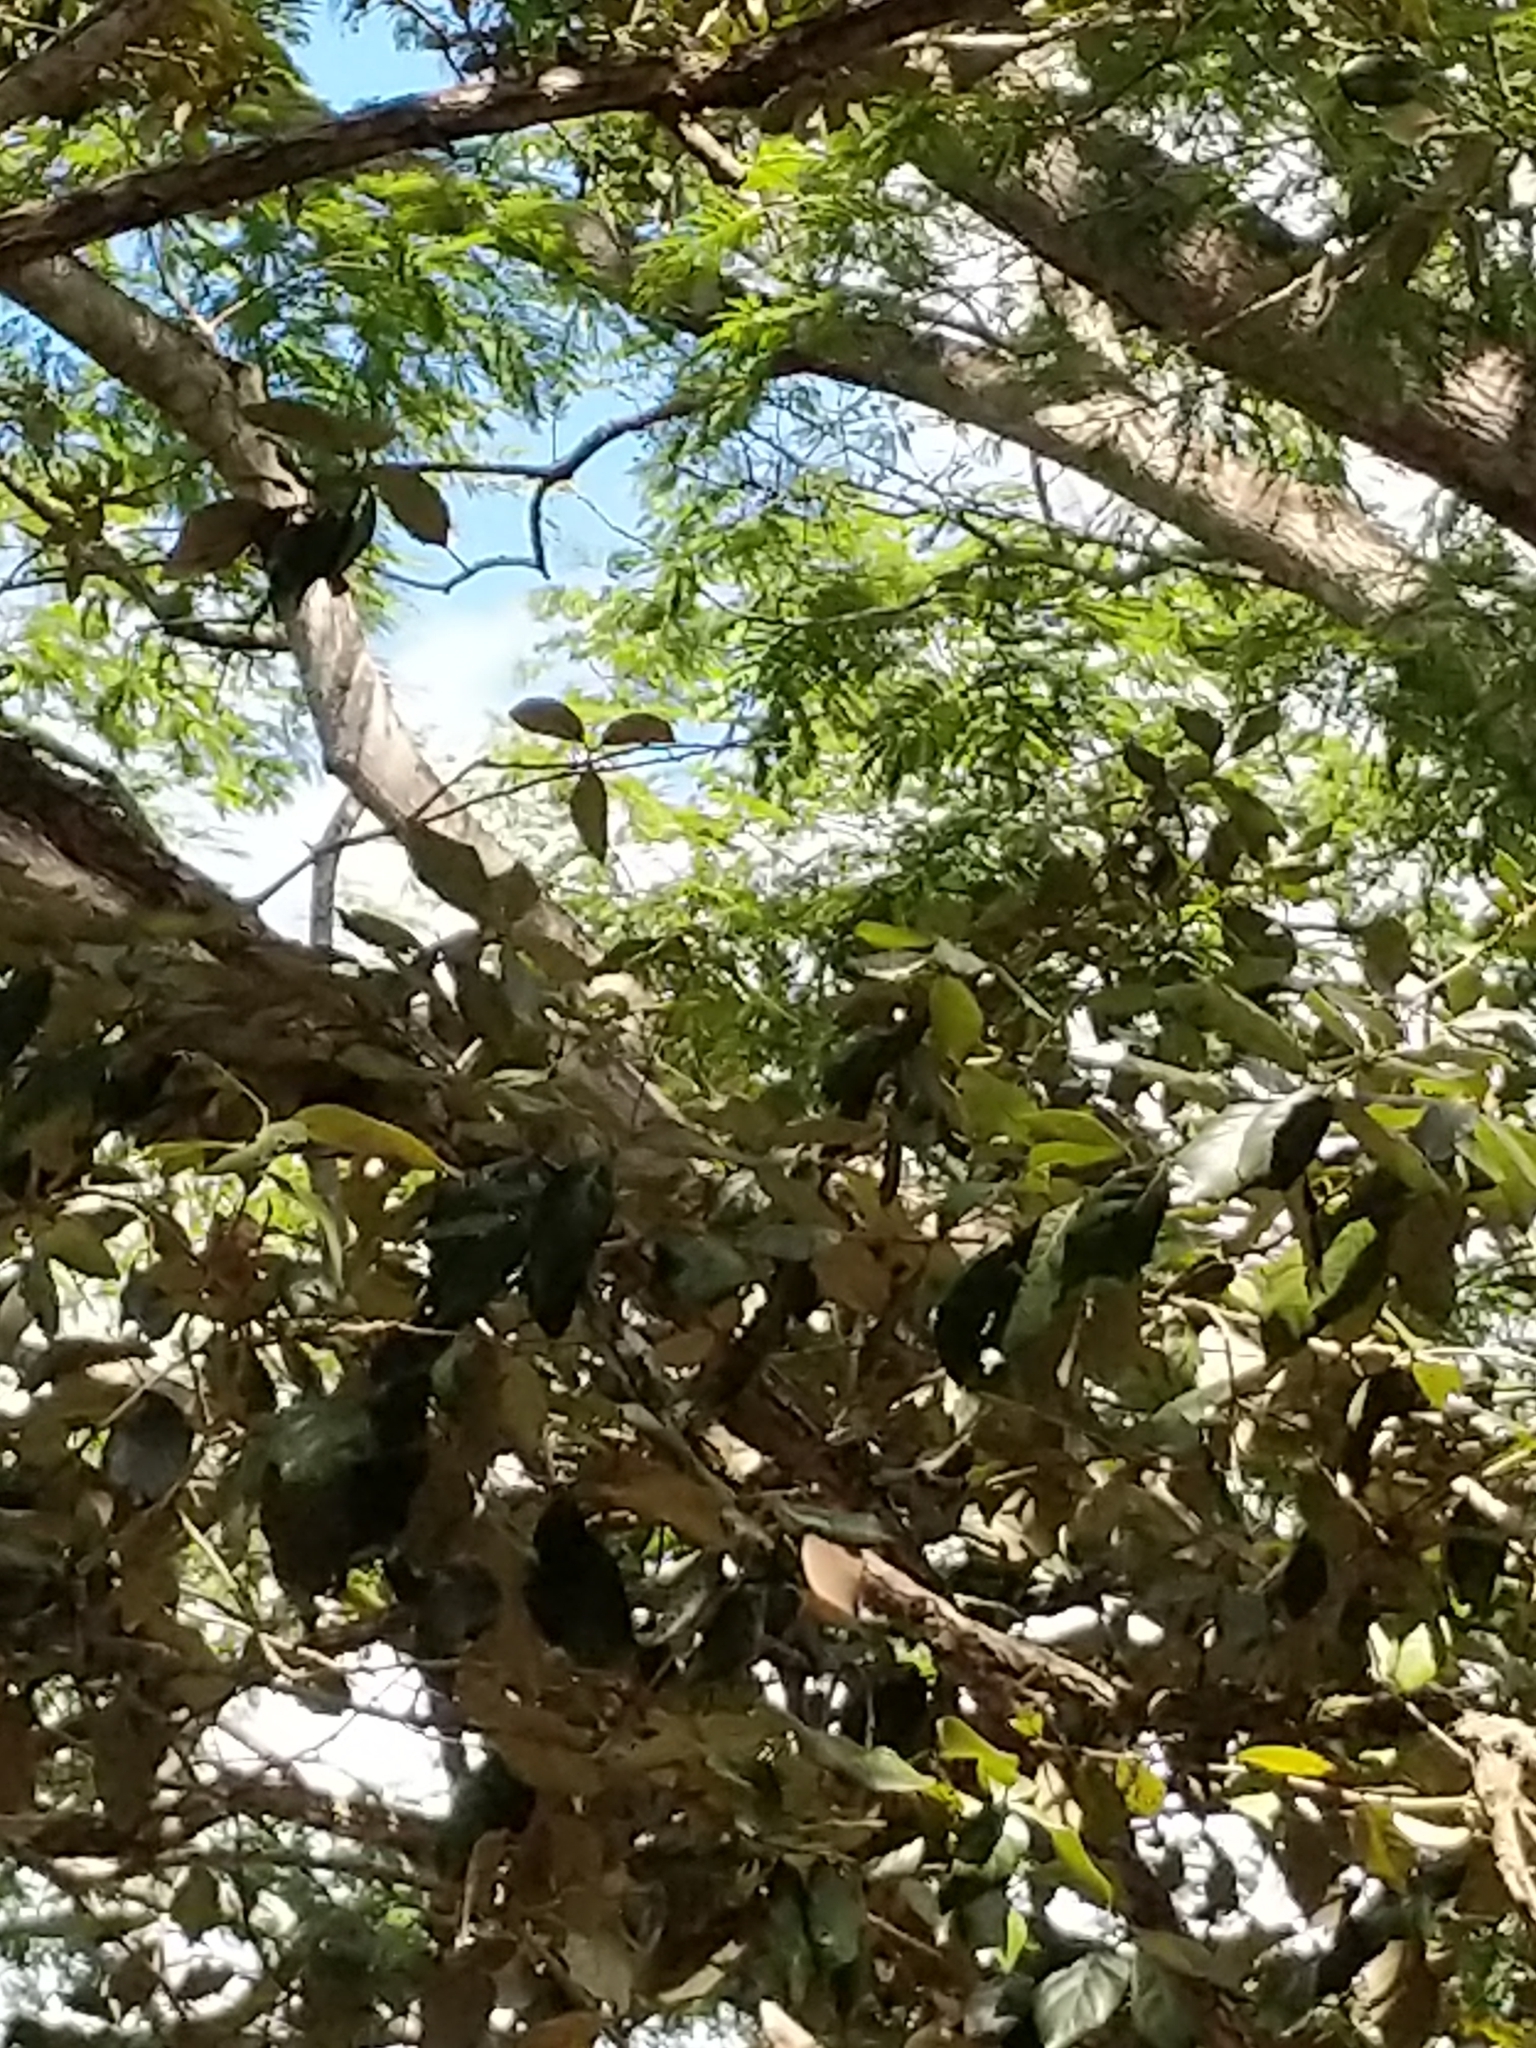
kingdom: Plantae
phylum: Tracheophyta
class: Magnoliopsida
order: Fagales
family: Fagaceae
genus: Quercus
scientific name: Quercus oleoides
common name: White oak
